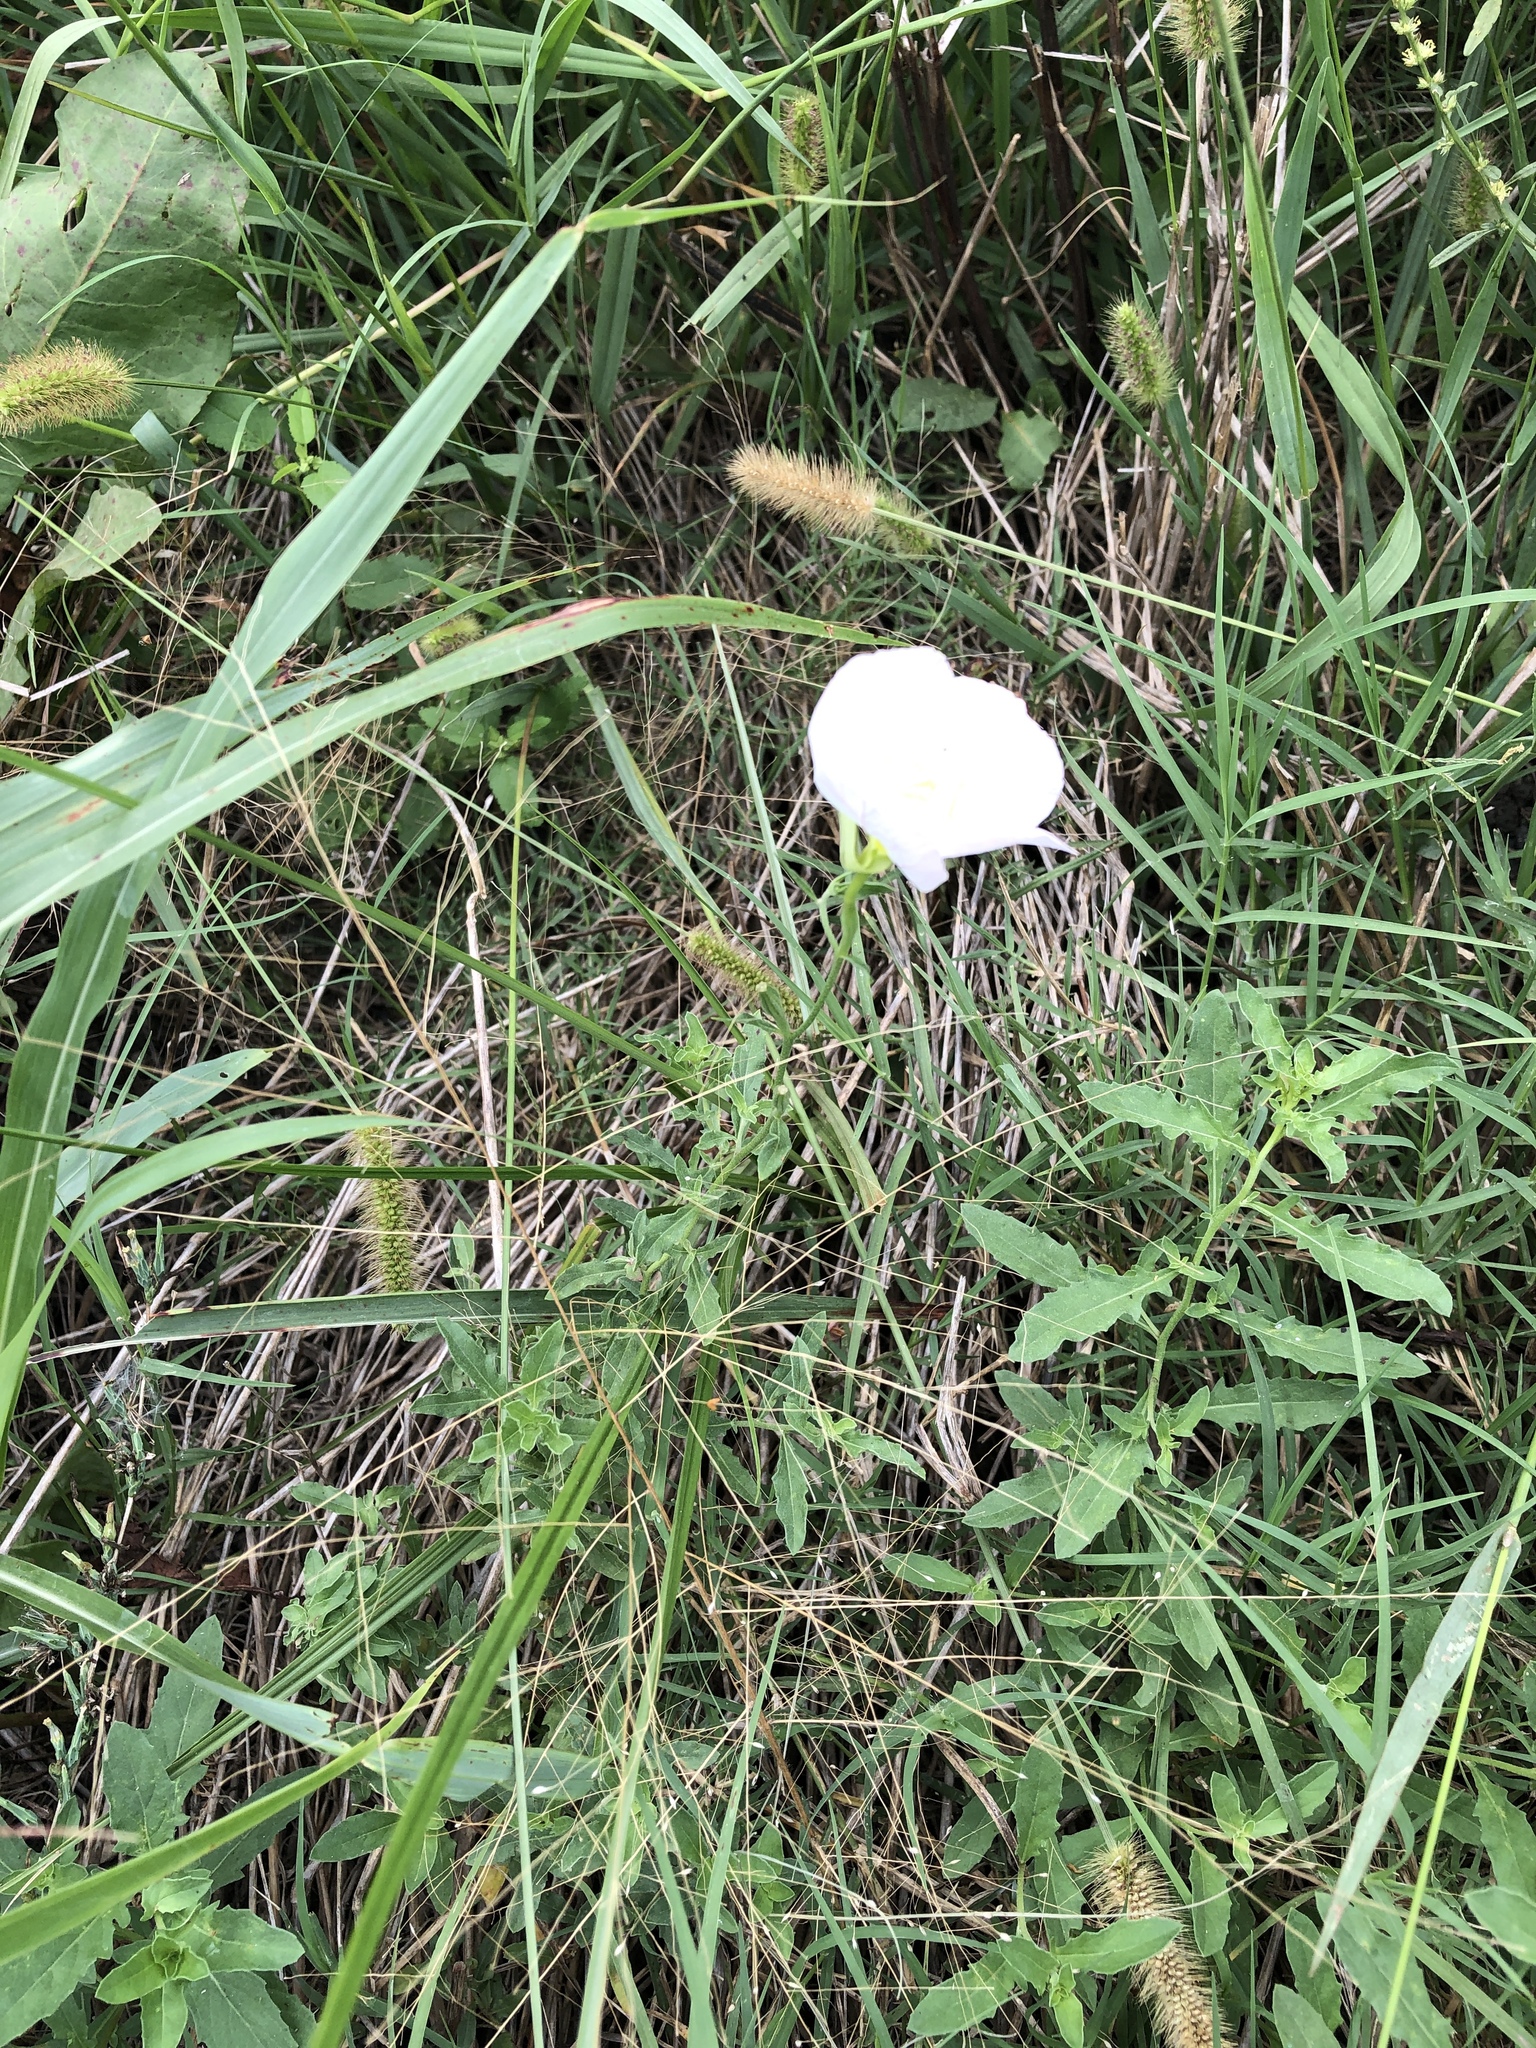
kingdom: Plantae
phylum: Tracheophyta
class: Magnoliopsida
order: Myrtales
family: Onagraceae
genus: Oenothera
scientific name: Oenothera speciosa
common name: White evening-primrose
